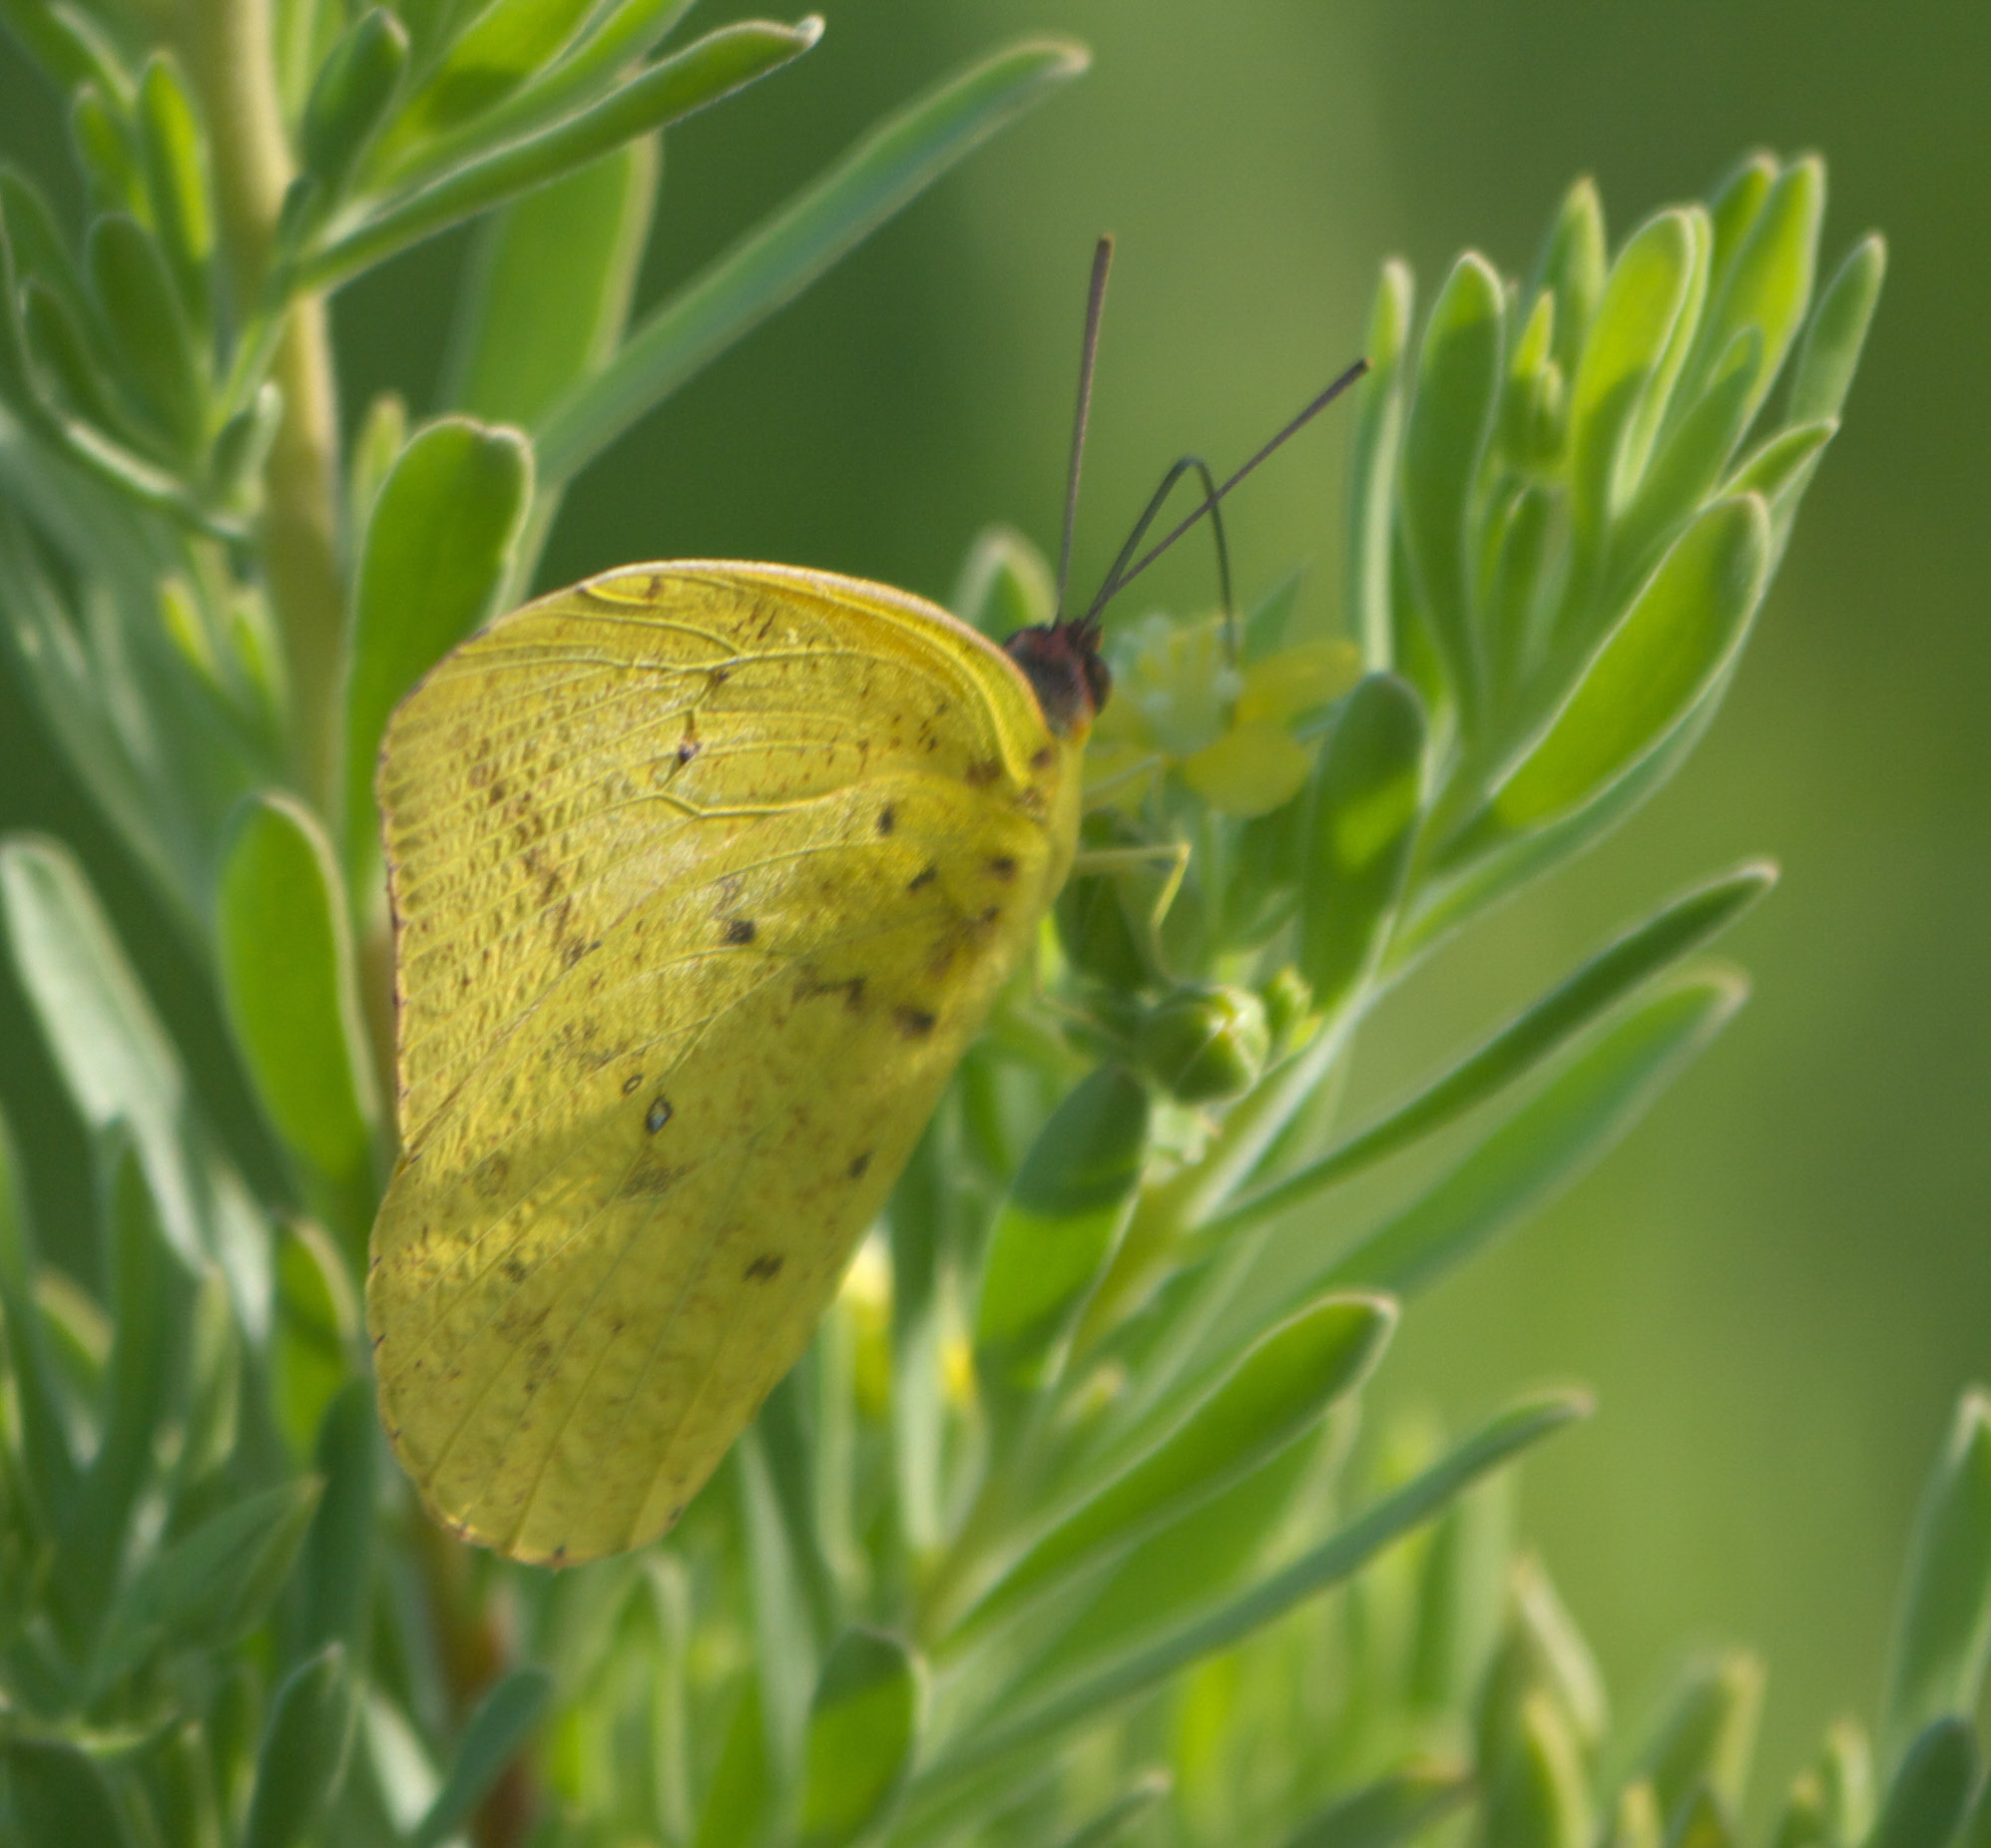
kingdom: Animalia
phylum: Arthropoda
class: Insecta
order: Lepidoptera
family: Pieridae
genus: Phoebis
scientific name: Phoebis agarithe
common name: Large orange sulphur
